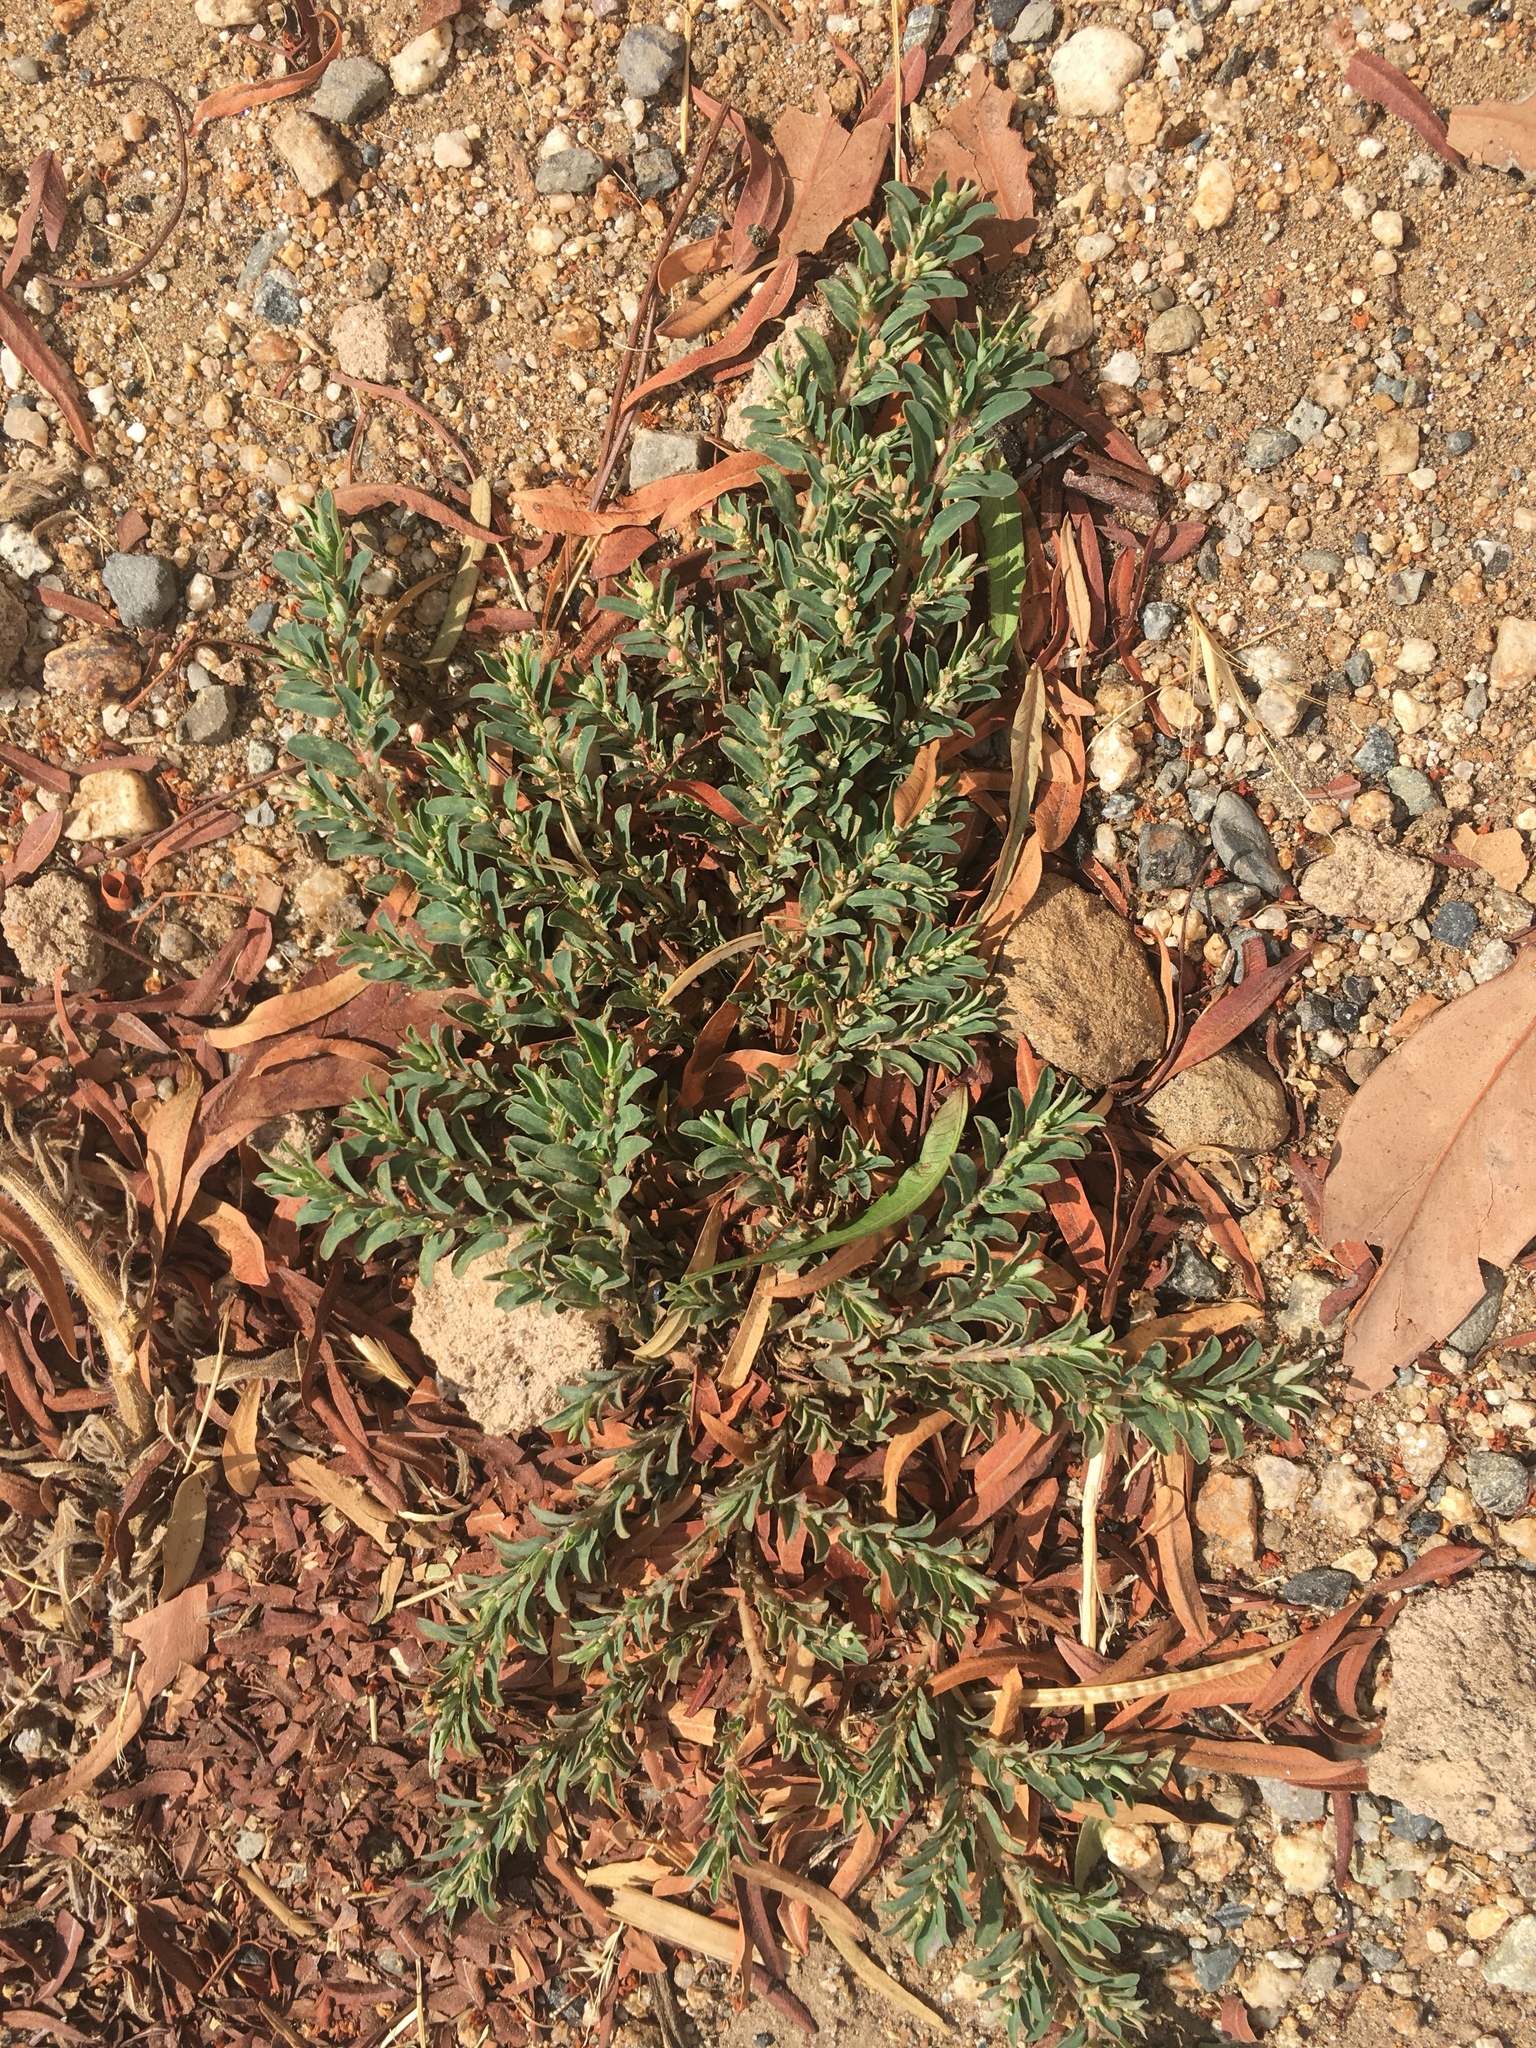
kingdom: Plantae
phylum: Tracheophyta
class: Magnoliopsida
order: Malpighiales
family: Euphorbiaceae
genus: Euphorbia
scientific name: Euphorbia maculata
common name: Spotted spurge
